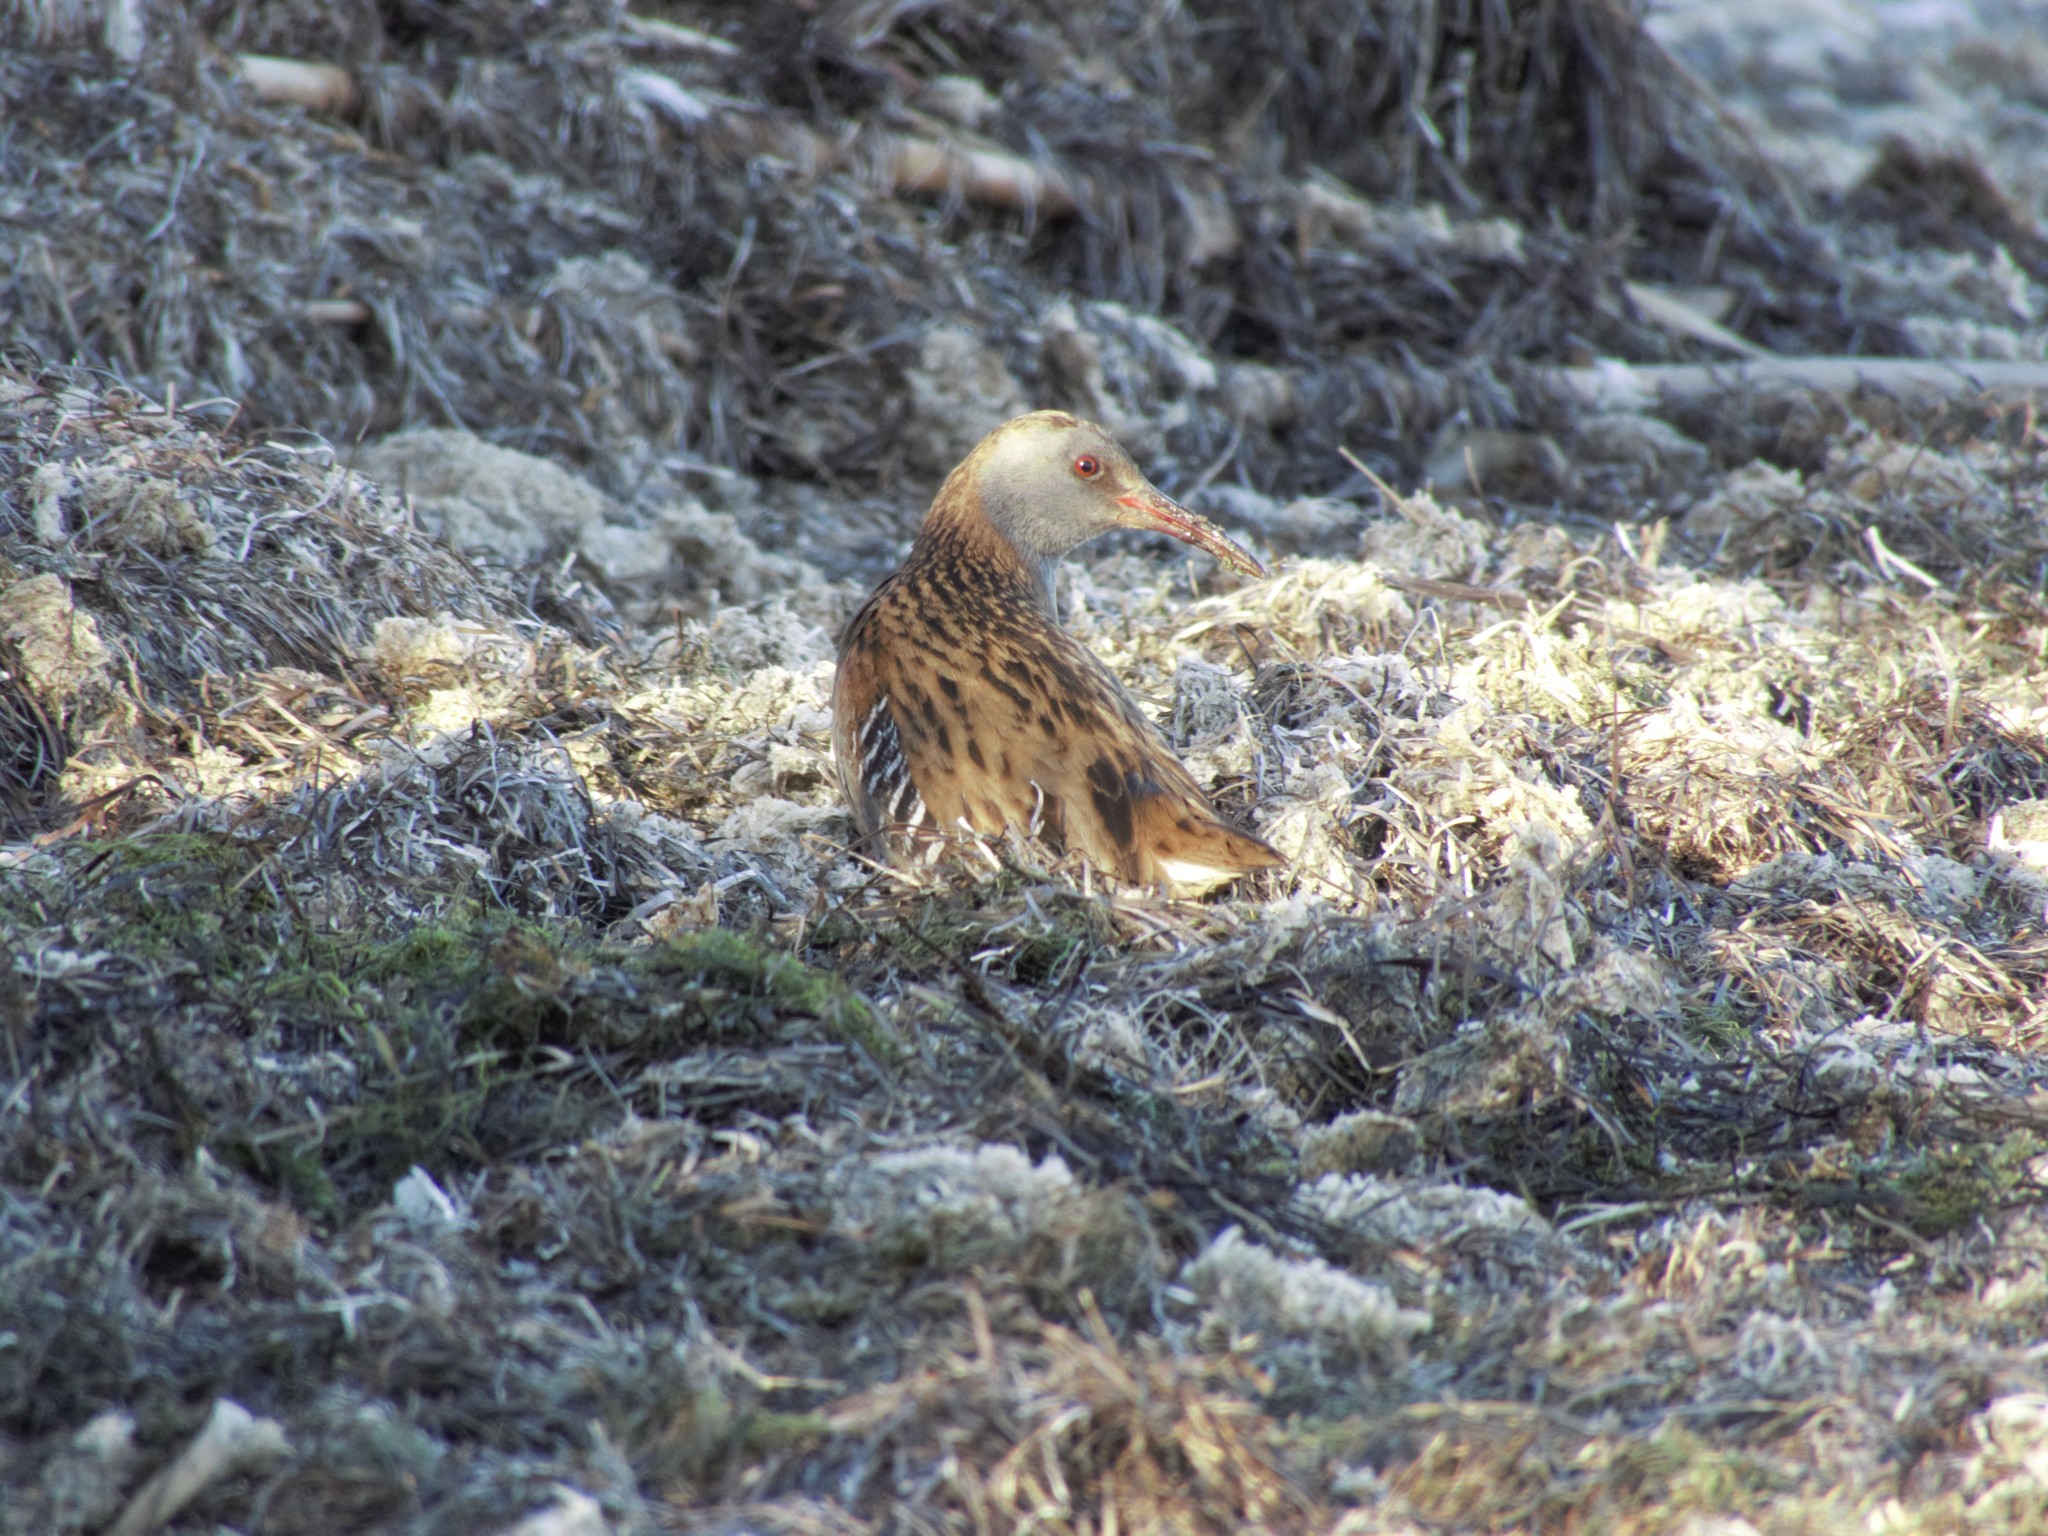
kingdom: Animalia
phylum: Chordata
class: Aves
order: Gruiformes
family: Rallidae
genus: Rallus
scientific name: Rallus aquaticus
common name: Water rail
